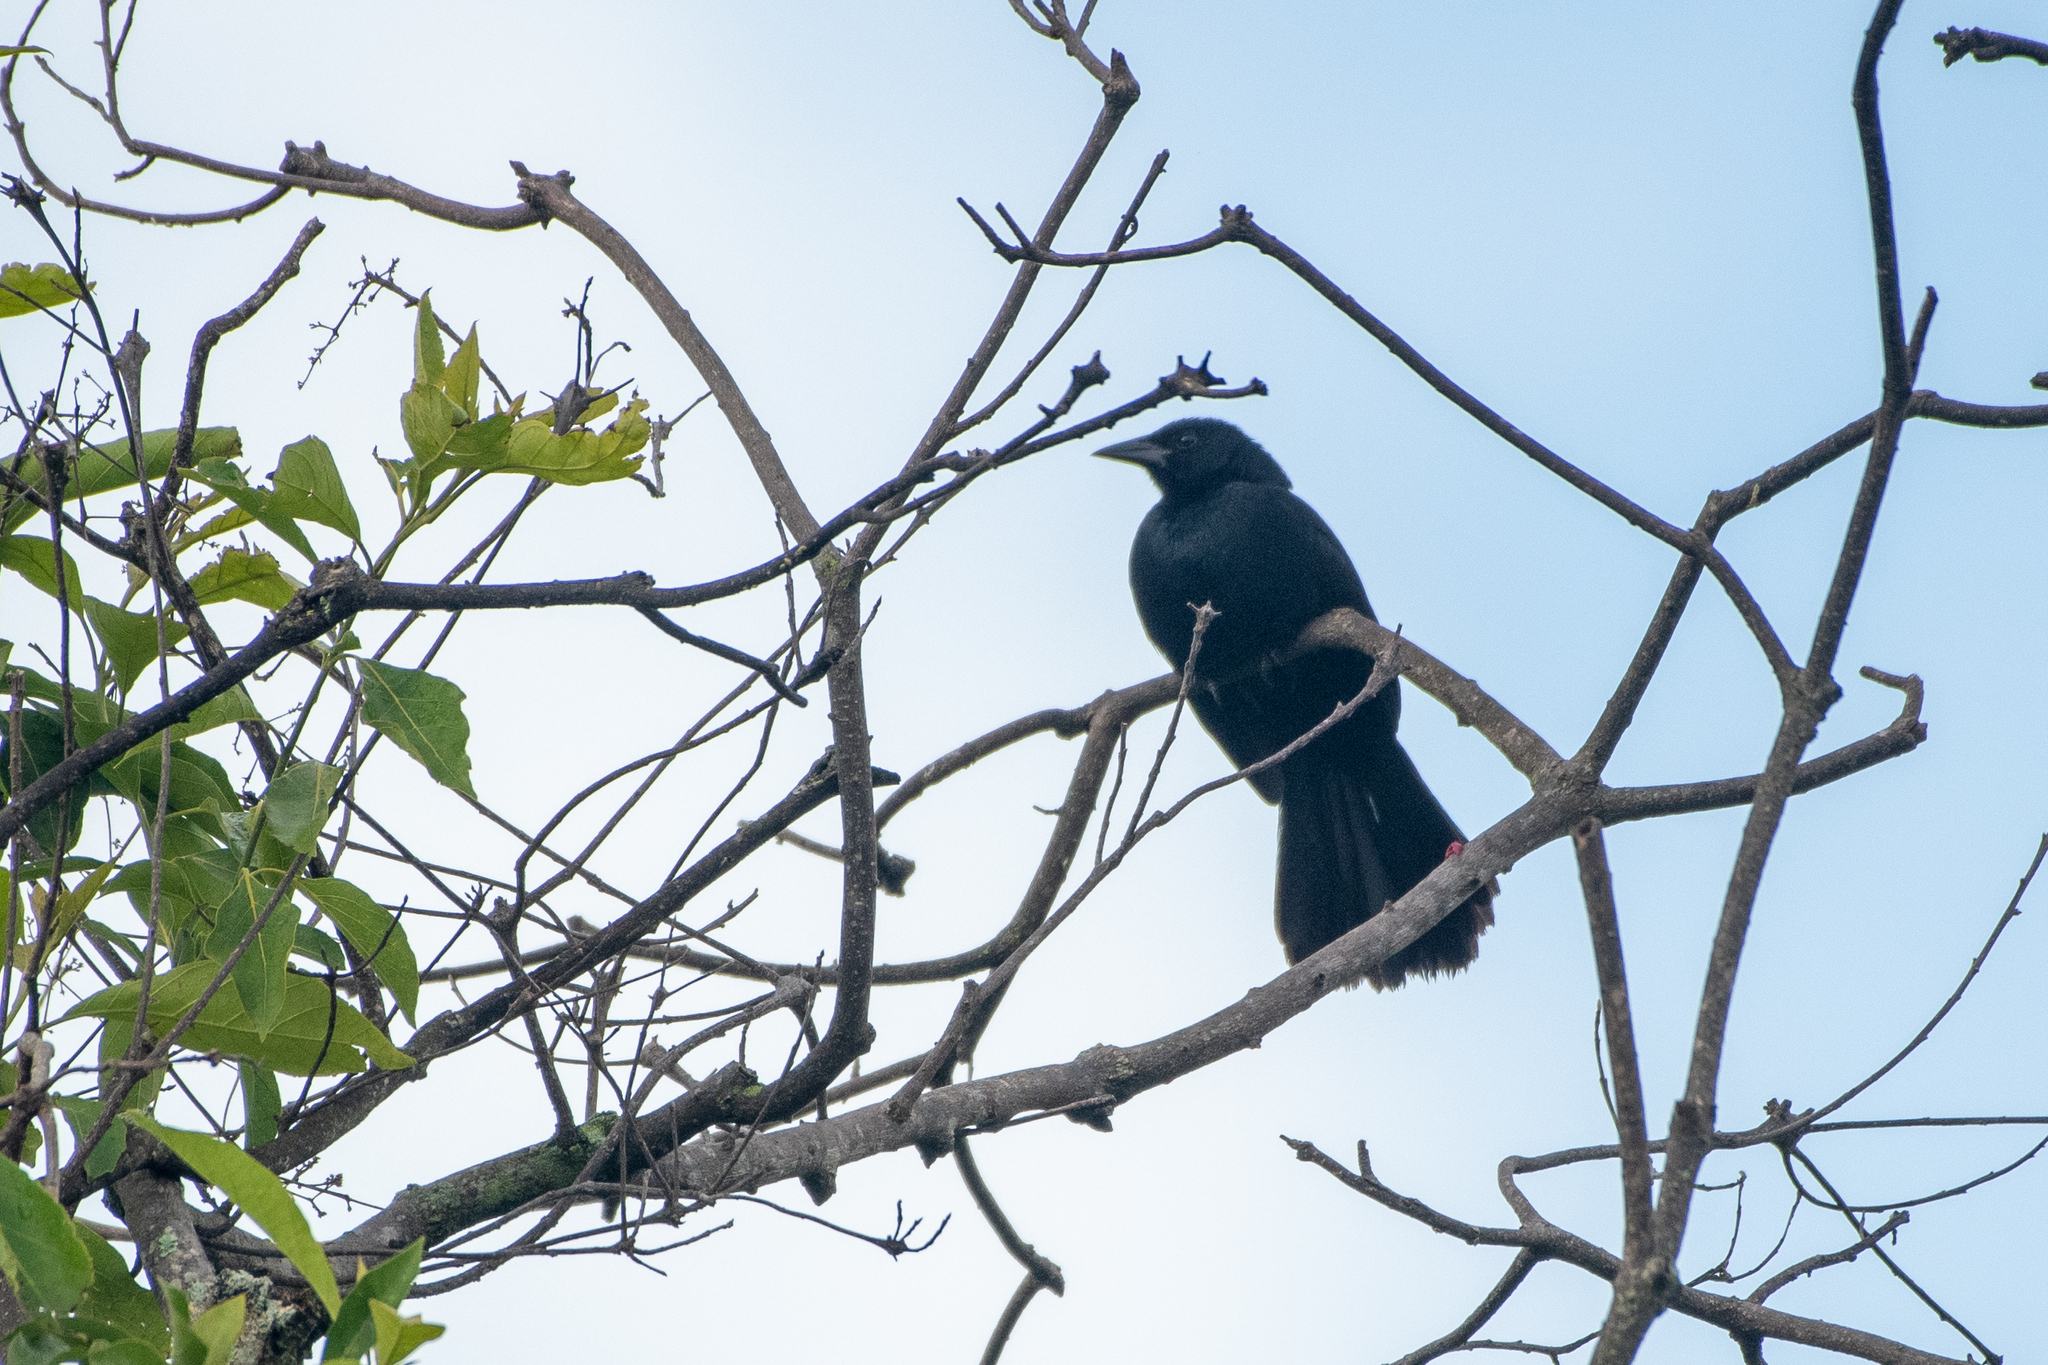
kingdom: Animalia
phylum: Chordata
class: Aves
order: Passeriformes
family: Icteridae
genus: Dives
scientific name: Dives dives
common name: Melodious blackbird
